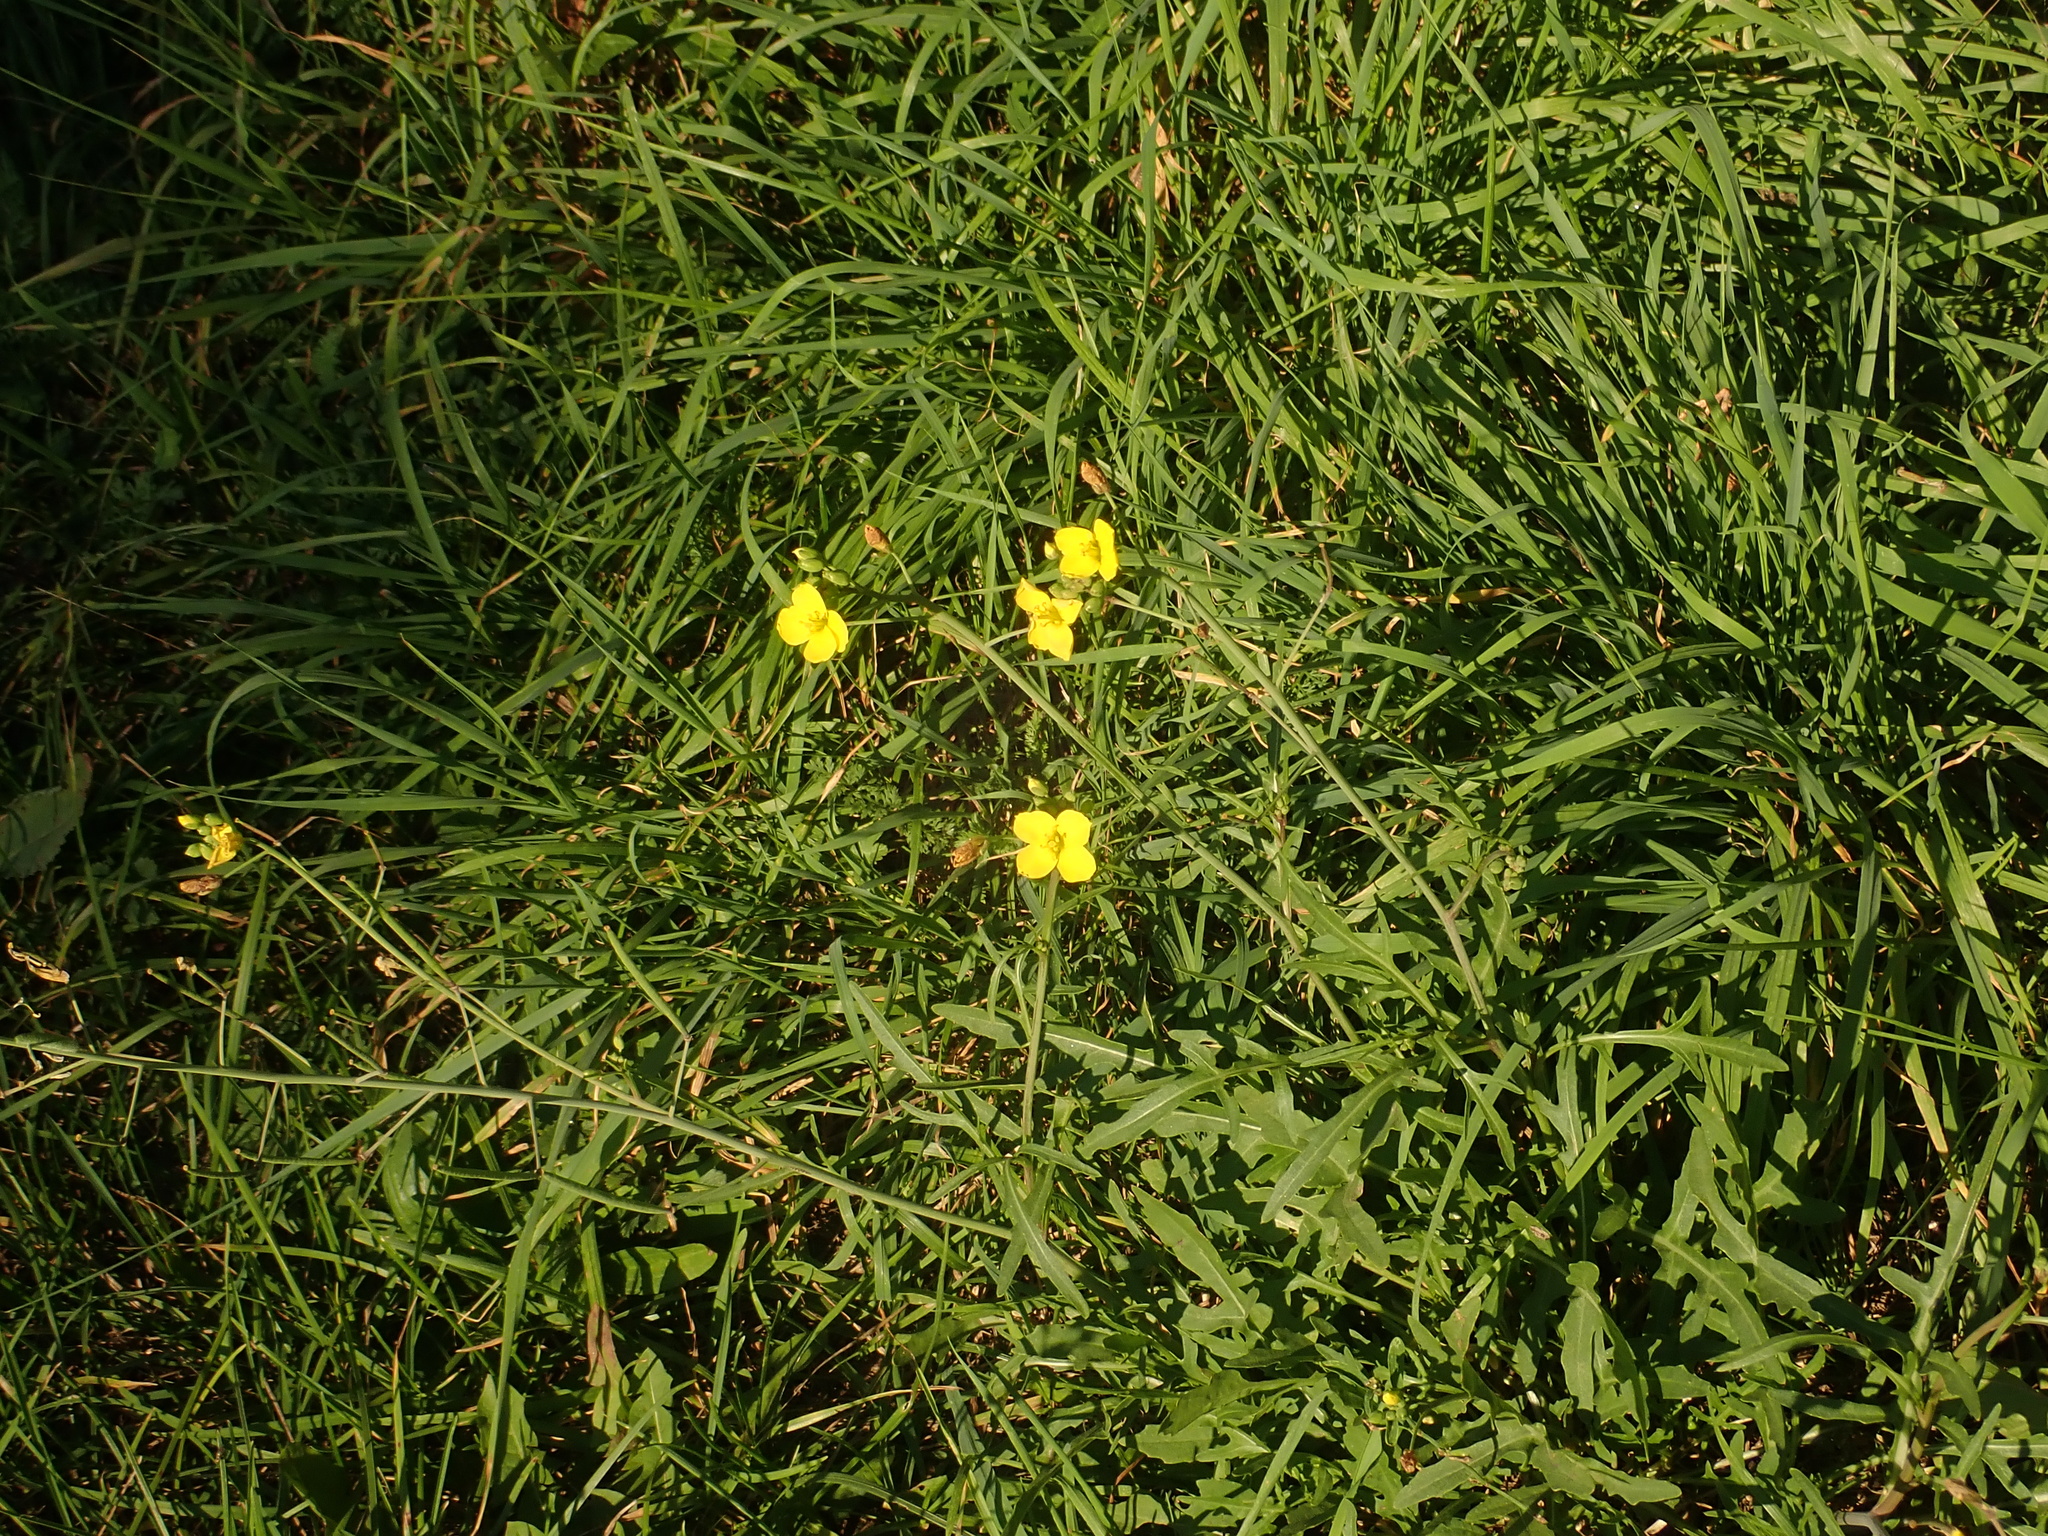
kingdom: Plantae
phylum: Tracheophyta
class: Magnoliopsida
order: Brassicales
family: Brassicaceae
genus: Diplotaxis
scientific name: Diplotaxis tenuifolia
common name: Perennial wall-rocket
